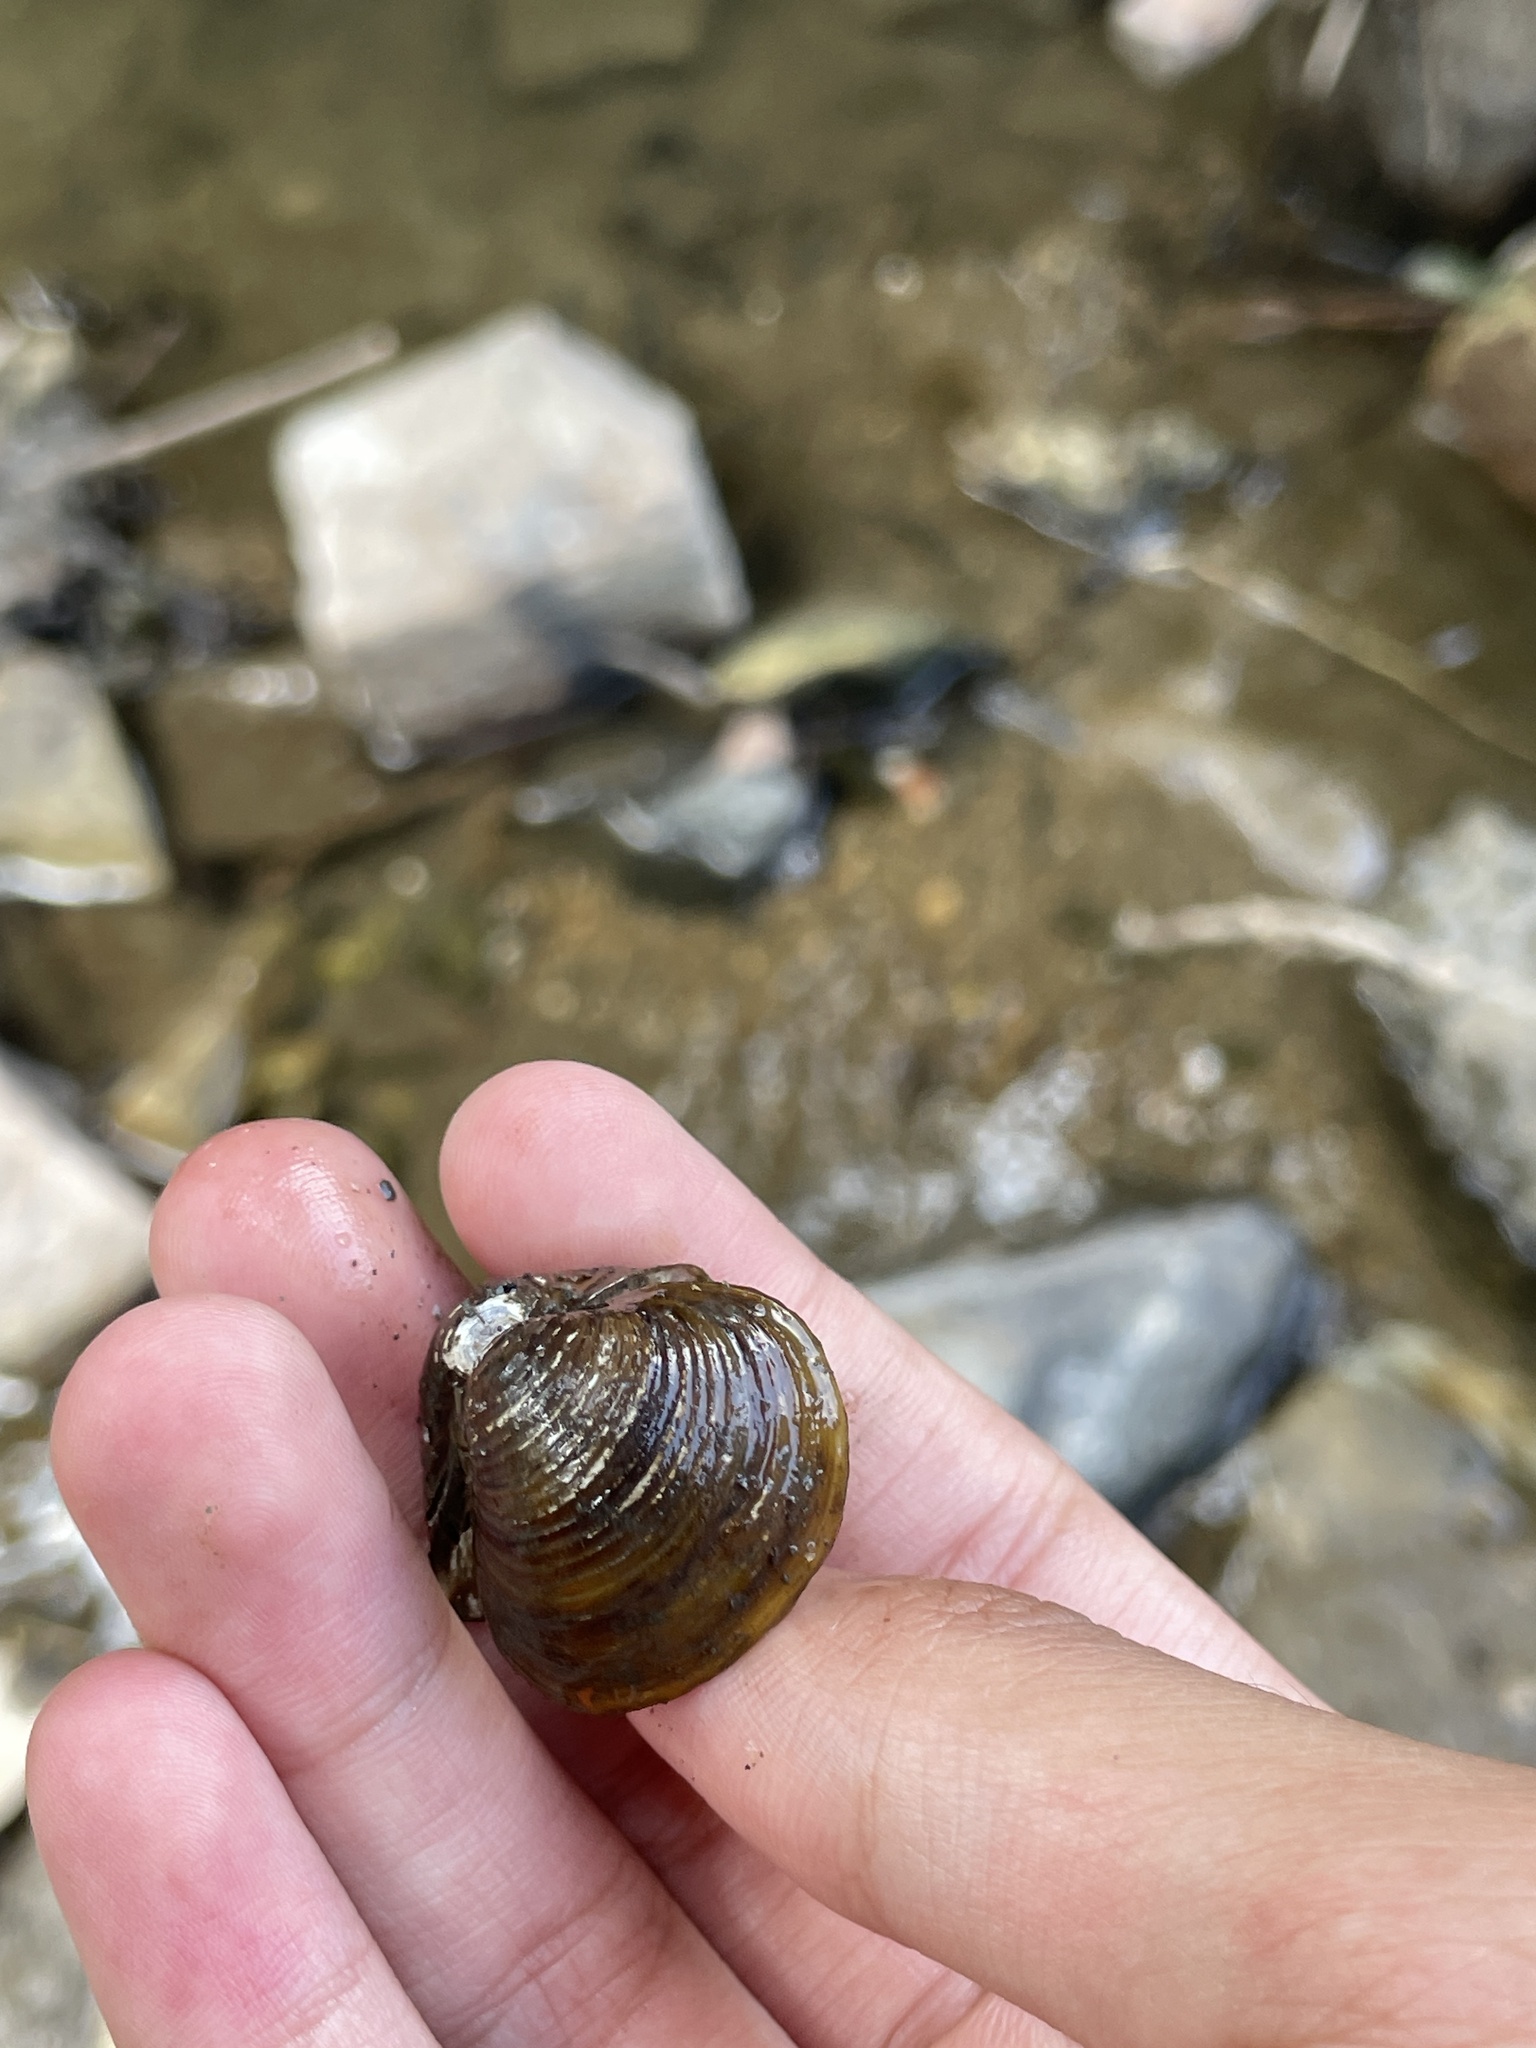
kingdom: Animalia
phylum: Mollusca
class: Bivalvia
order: Venerida
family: Cyrenidae
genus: Corbicula
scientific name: Corbicula fluminea
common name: Asian clam
